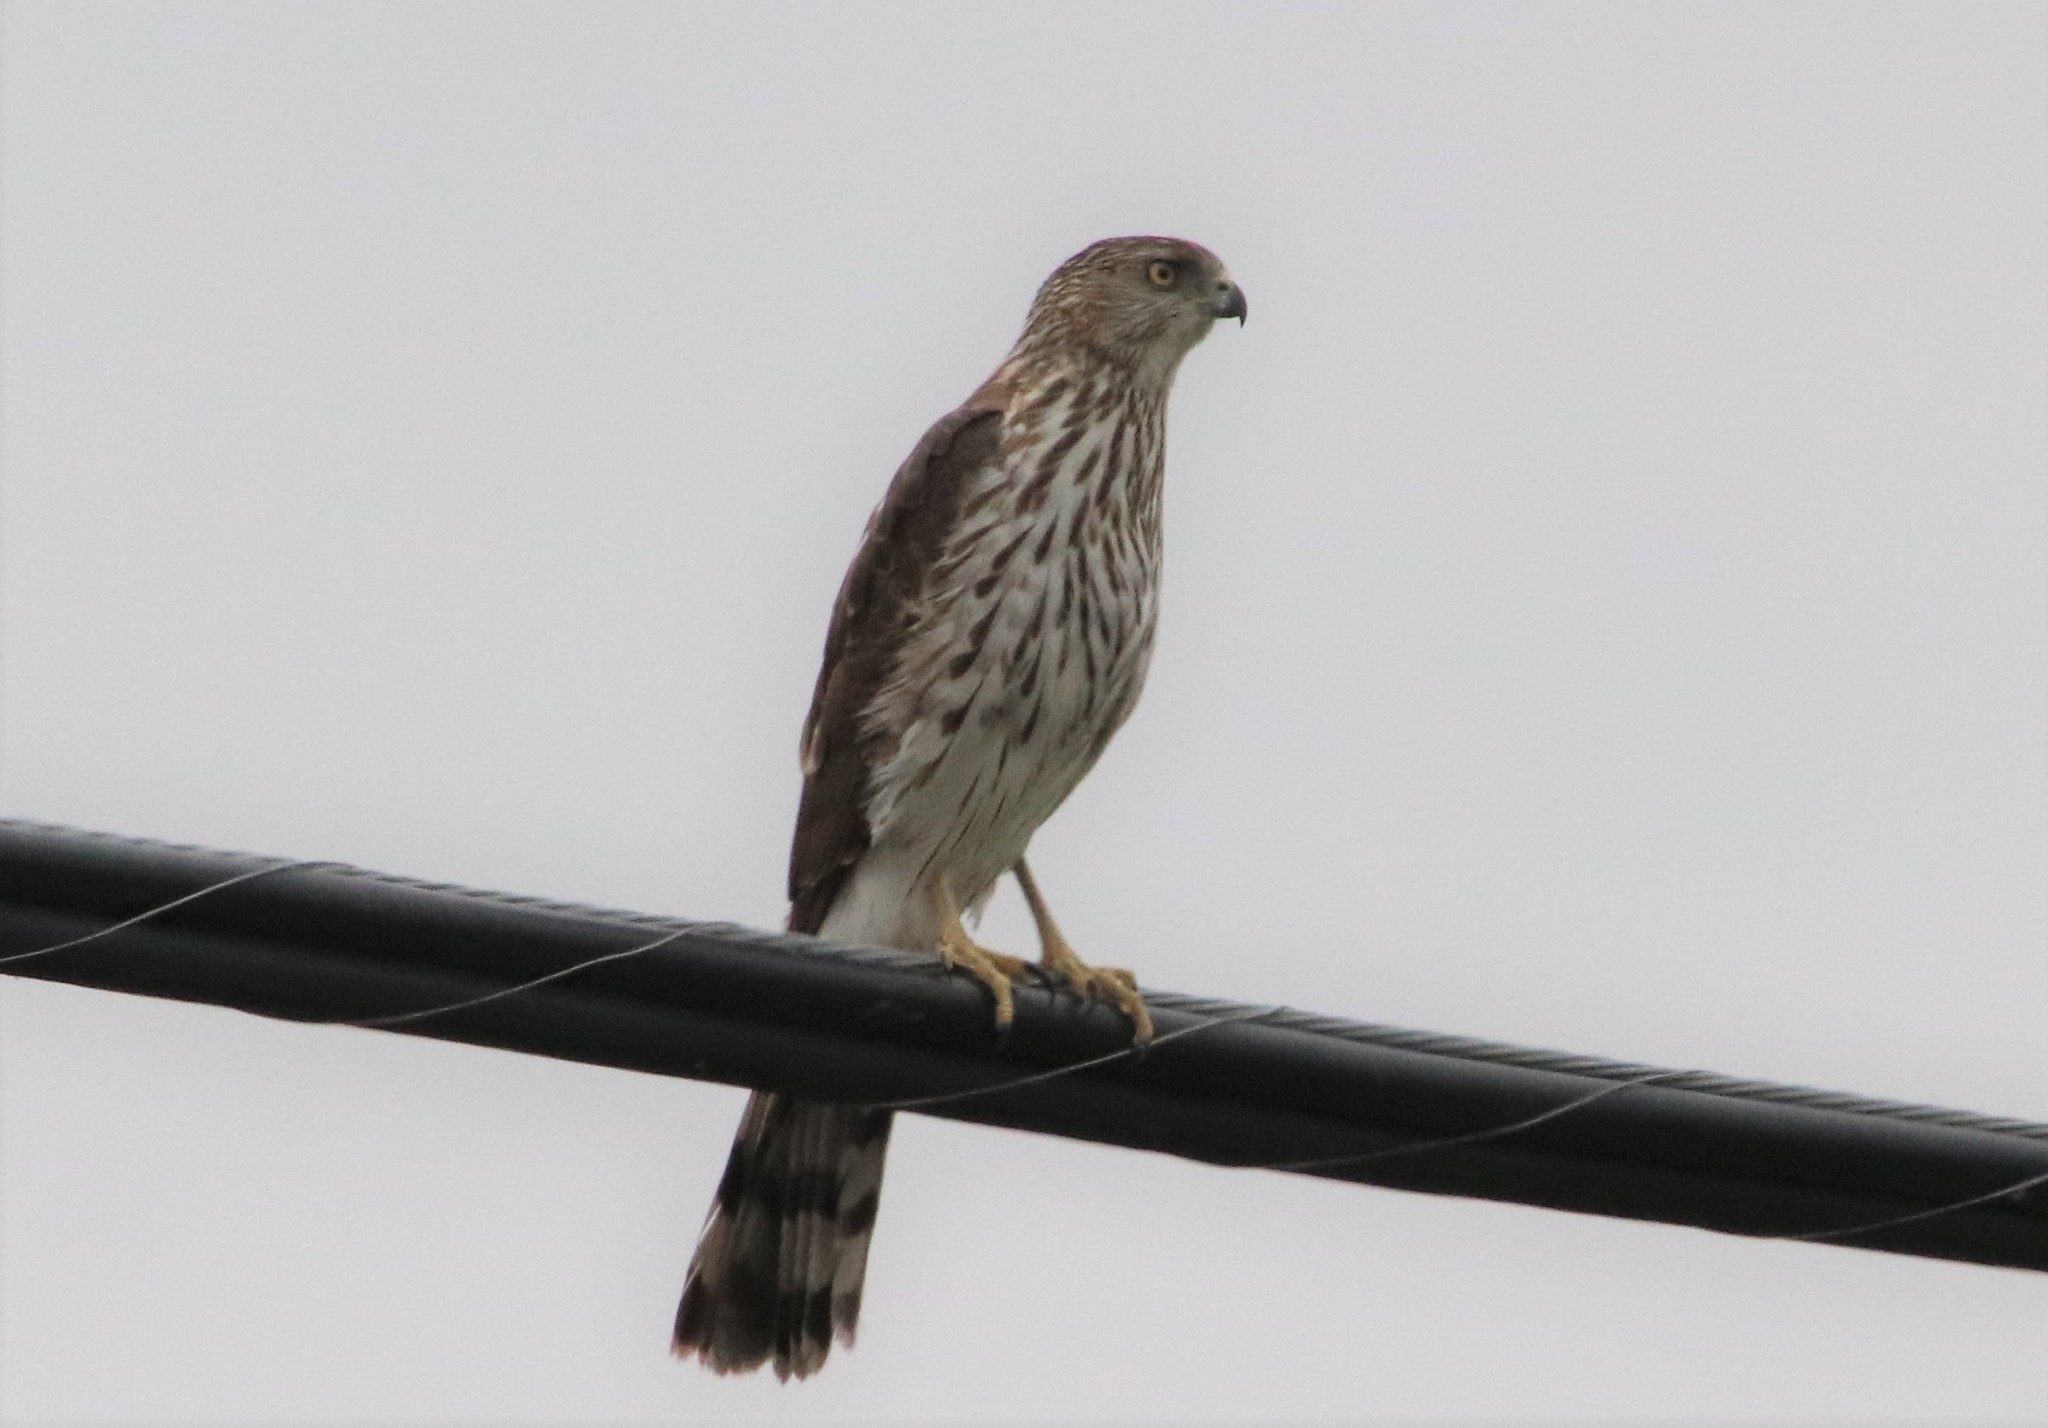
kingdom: Animalia
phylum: Chordata
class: Aves
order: Accipitriformes
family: Accipitridae
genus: Accipiter
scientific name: Accipiter cooperii
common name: Cooper's hawk
